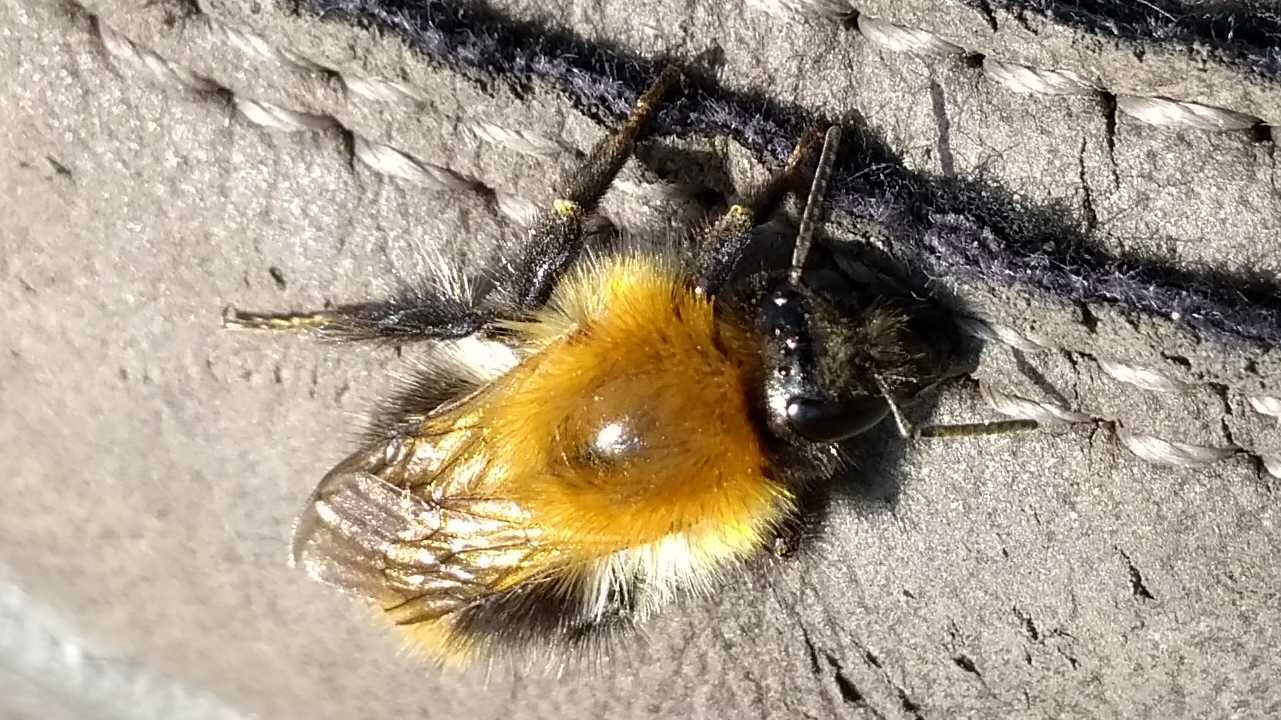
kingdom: Animalia
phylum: Arthropoda
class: Insecta
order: Hymenoptera
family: Apidae
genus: Bombus
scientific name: Bombus pascuorum
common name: Common carder bee
